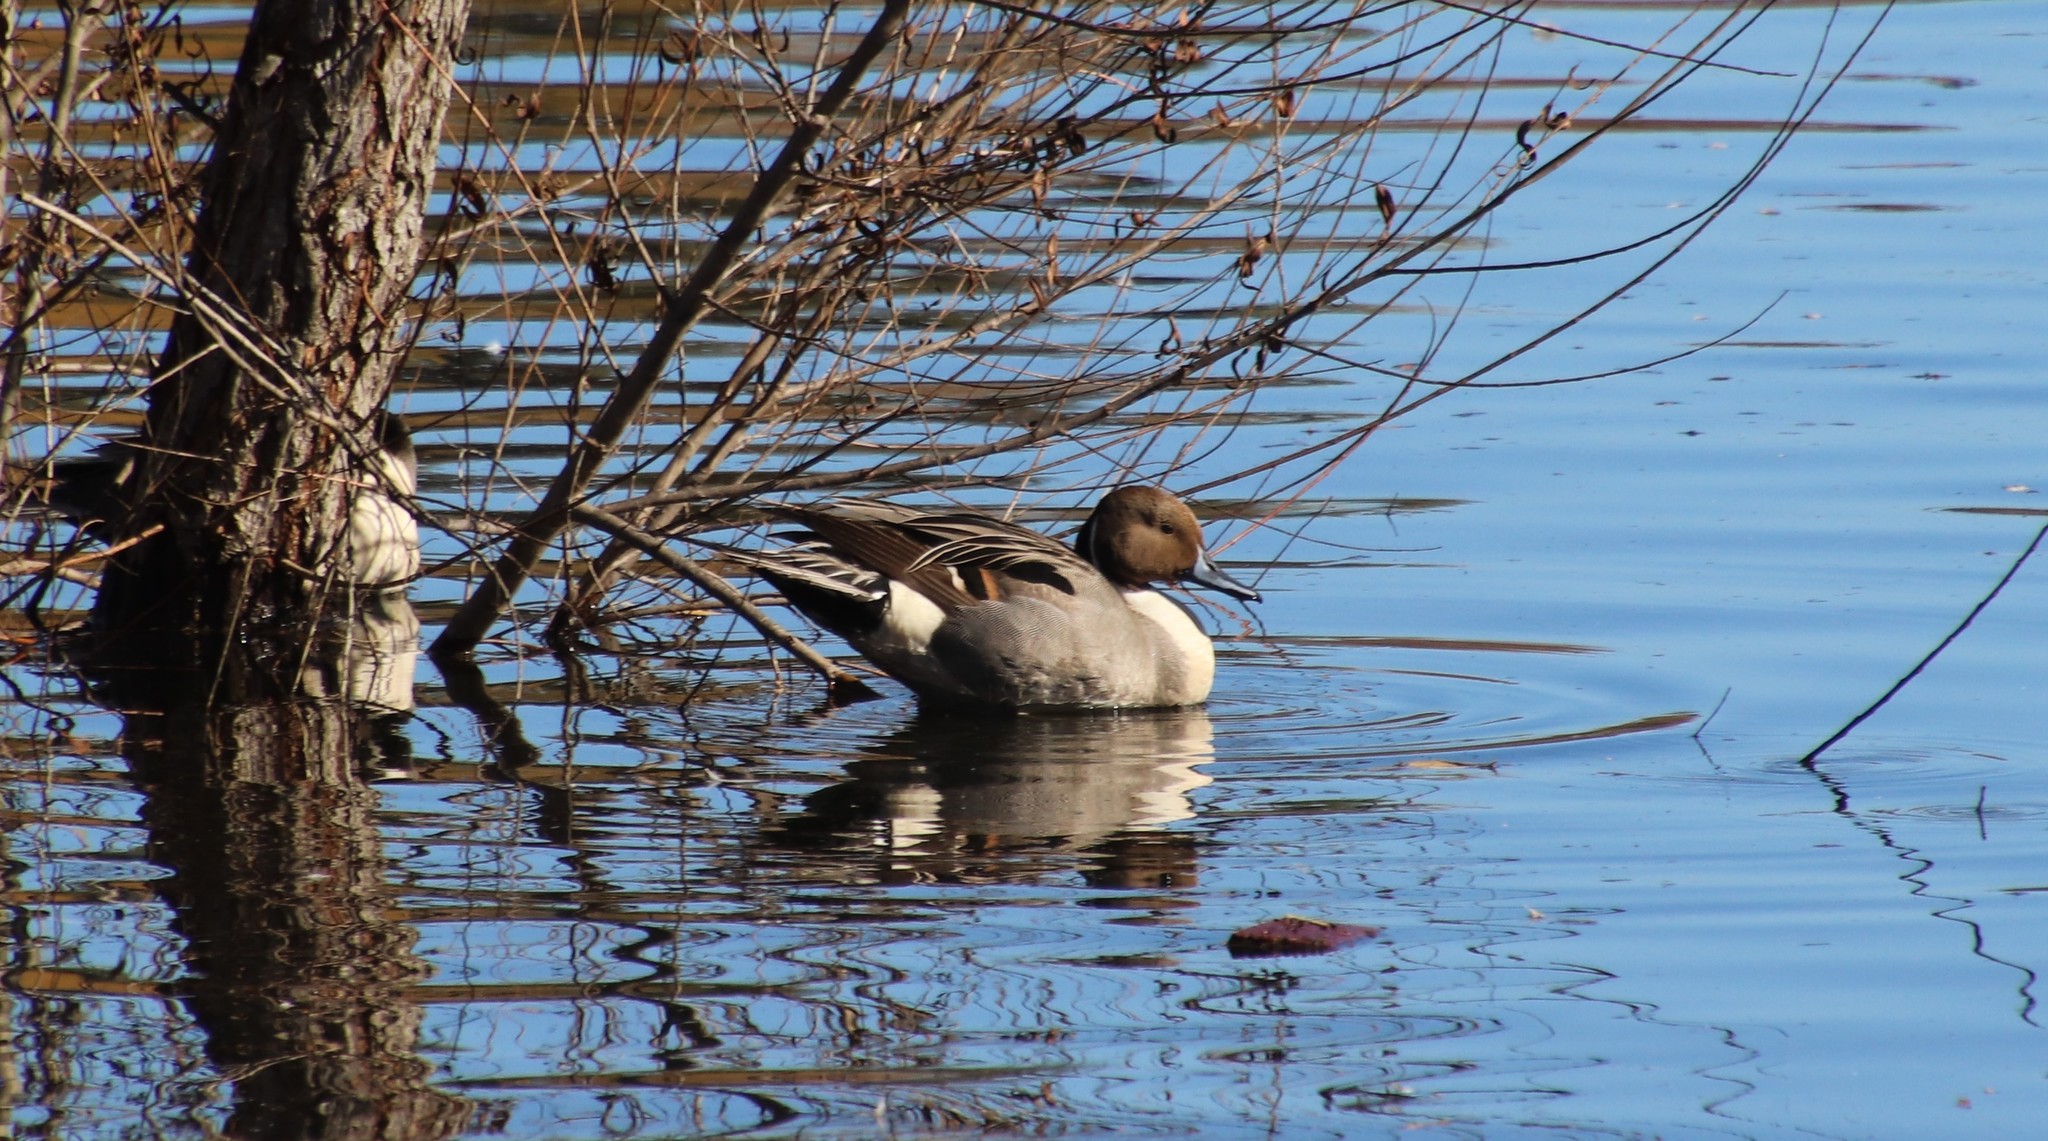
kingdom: Animalia
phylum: Chordata
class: Aves
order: Anseriformes
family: Anatidae
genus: Anas
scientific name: Anas acuta
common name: Northern pintail
